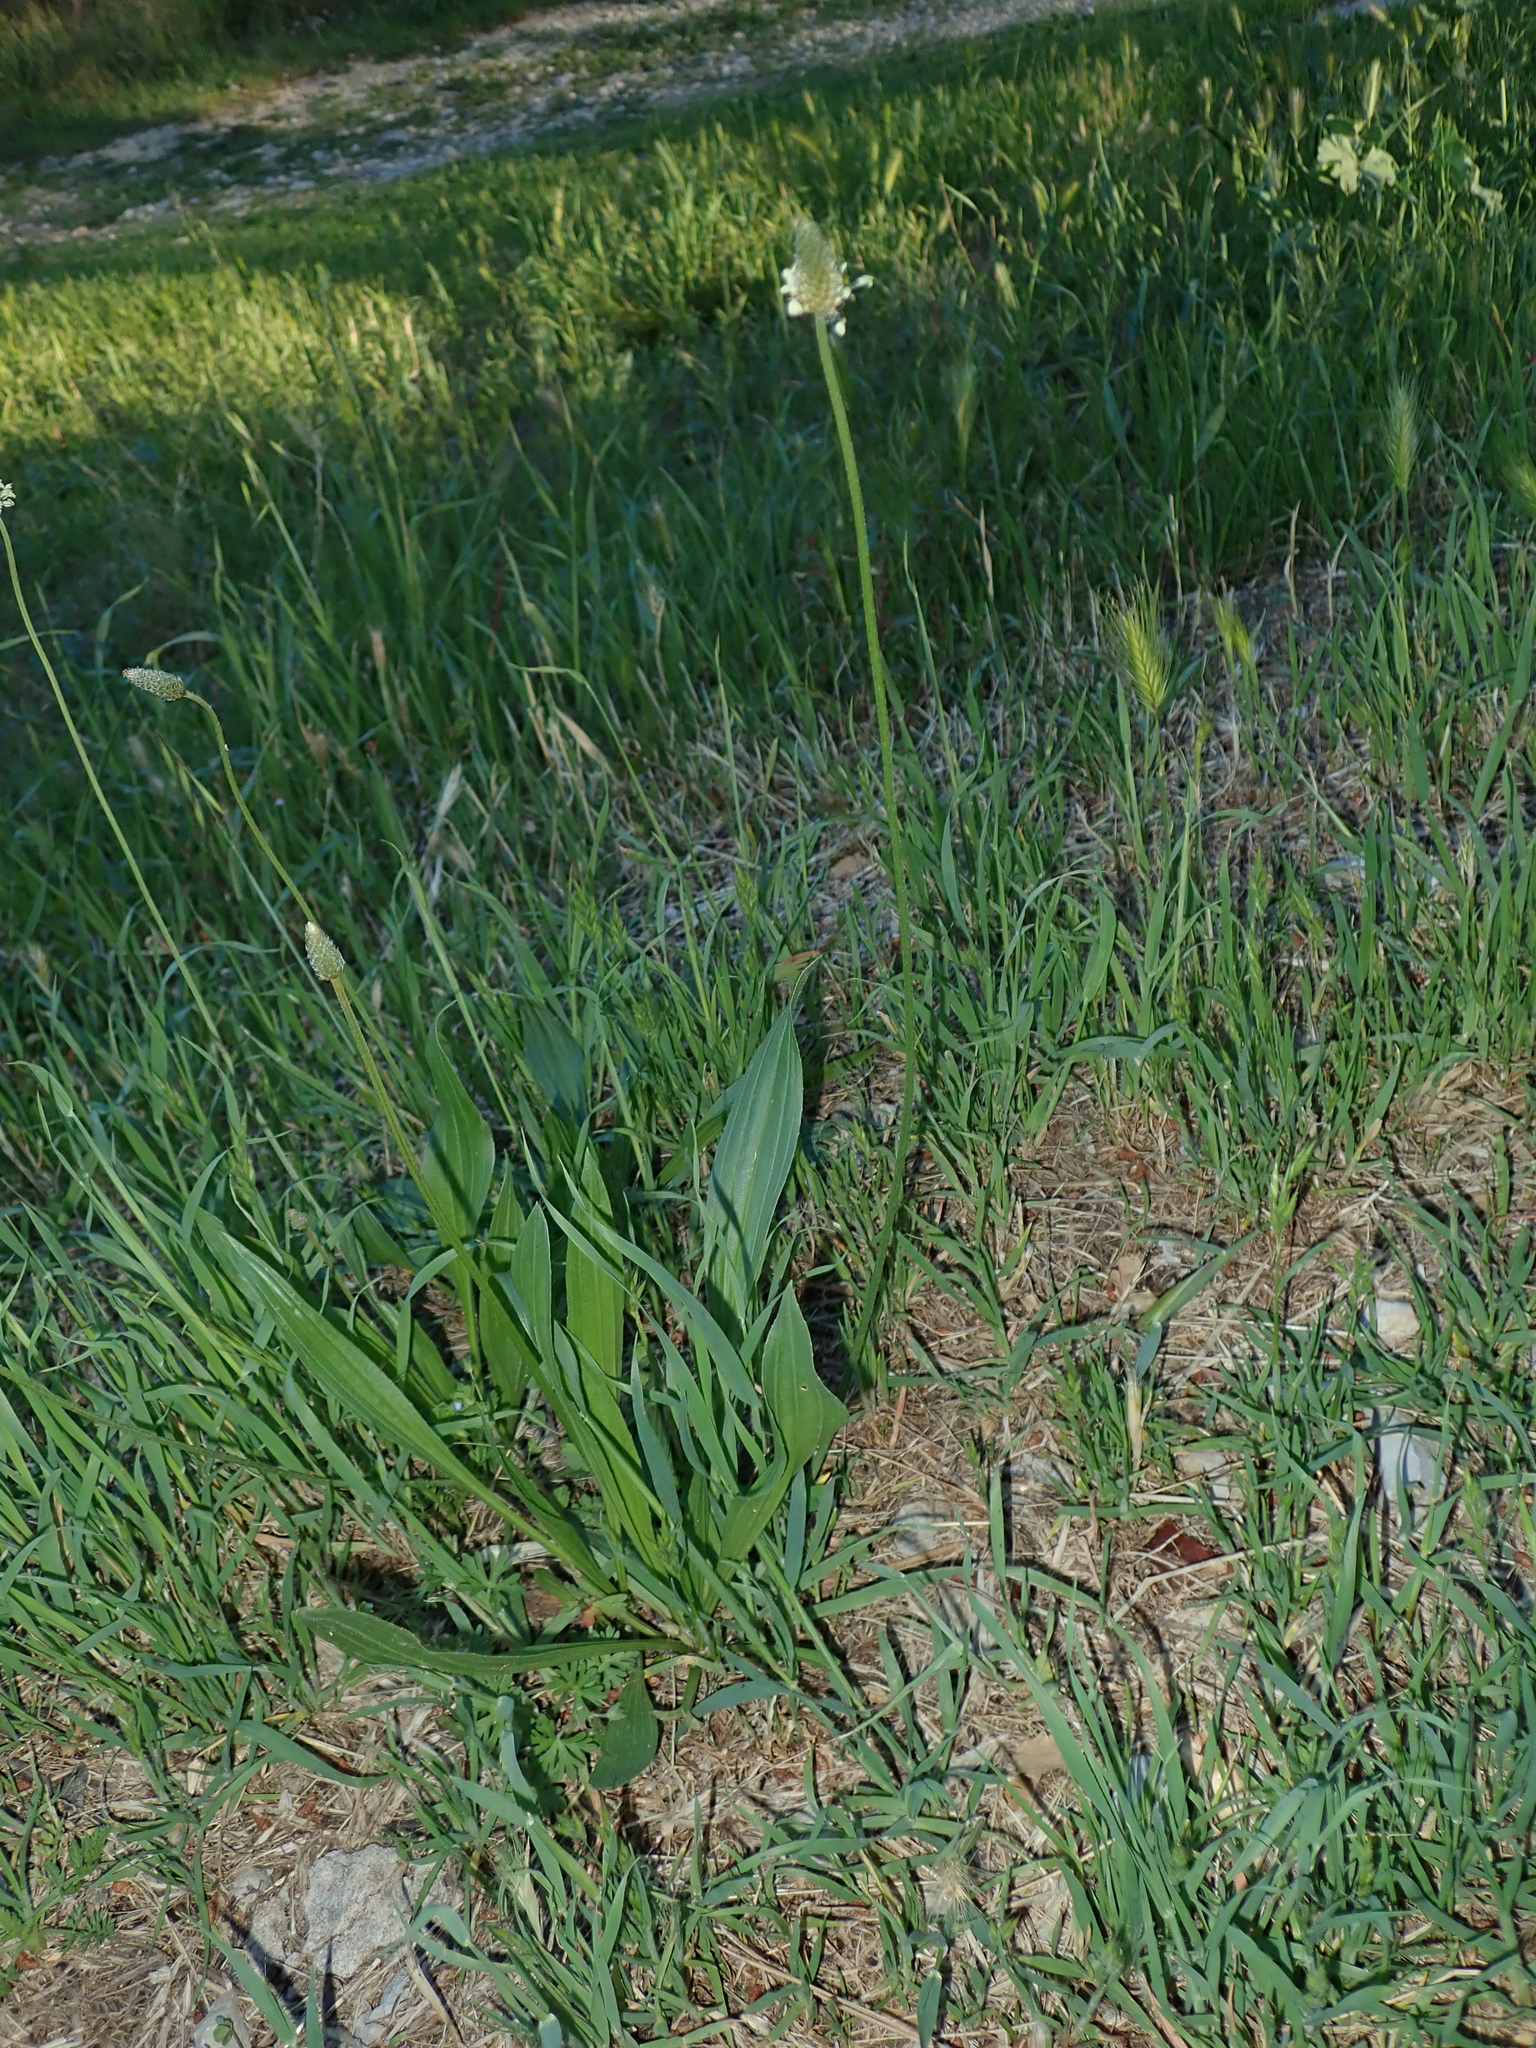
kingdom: Plantae
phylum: Tracheophyta
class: Magnoliopsida
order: Lamiales
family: Plantaginaceae
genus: Plantago
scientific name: Plantago lanceolata
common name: Ribwort plantain
